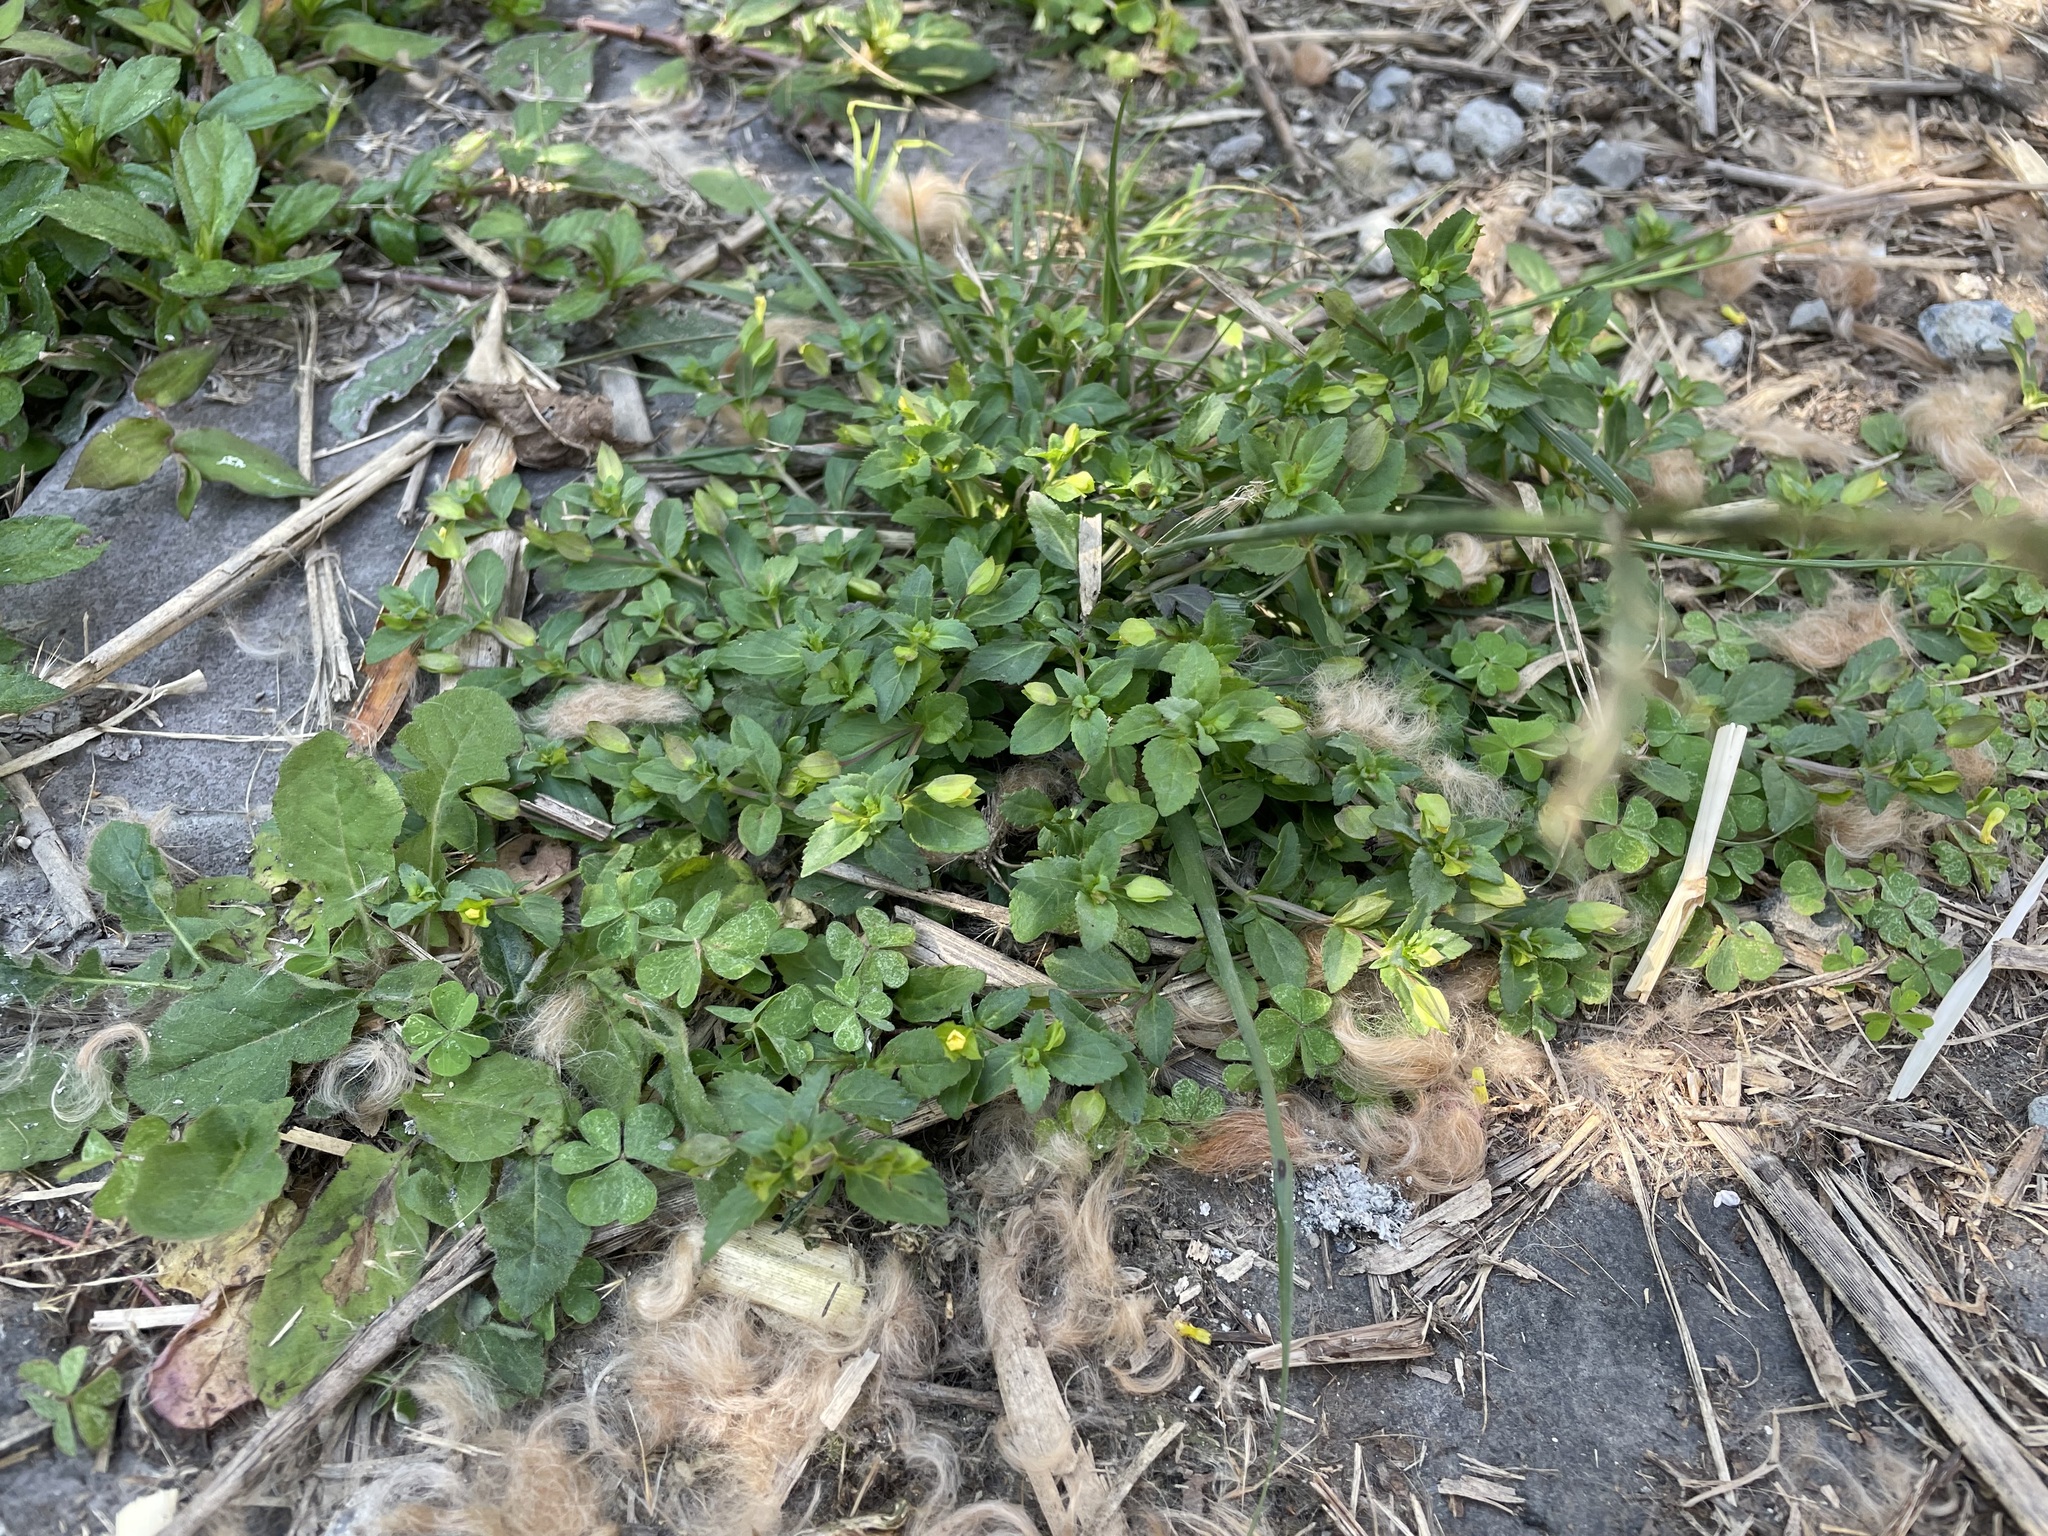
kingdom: Plantae
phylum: Tracheophyta
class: Magnoliopsida
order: Lamiales
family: Plantaginaceae
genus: Mecardonia
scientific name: Mecardonia procumbens
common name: Baby jump-up
